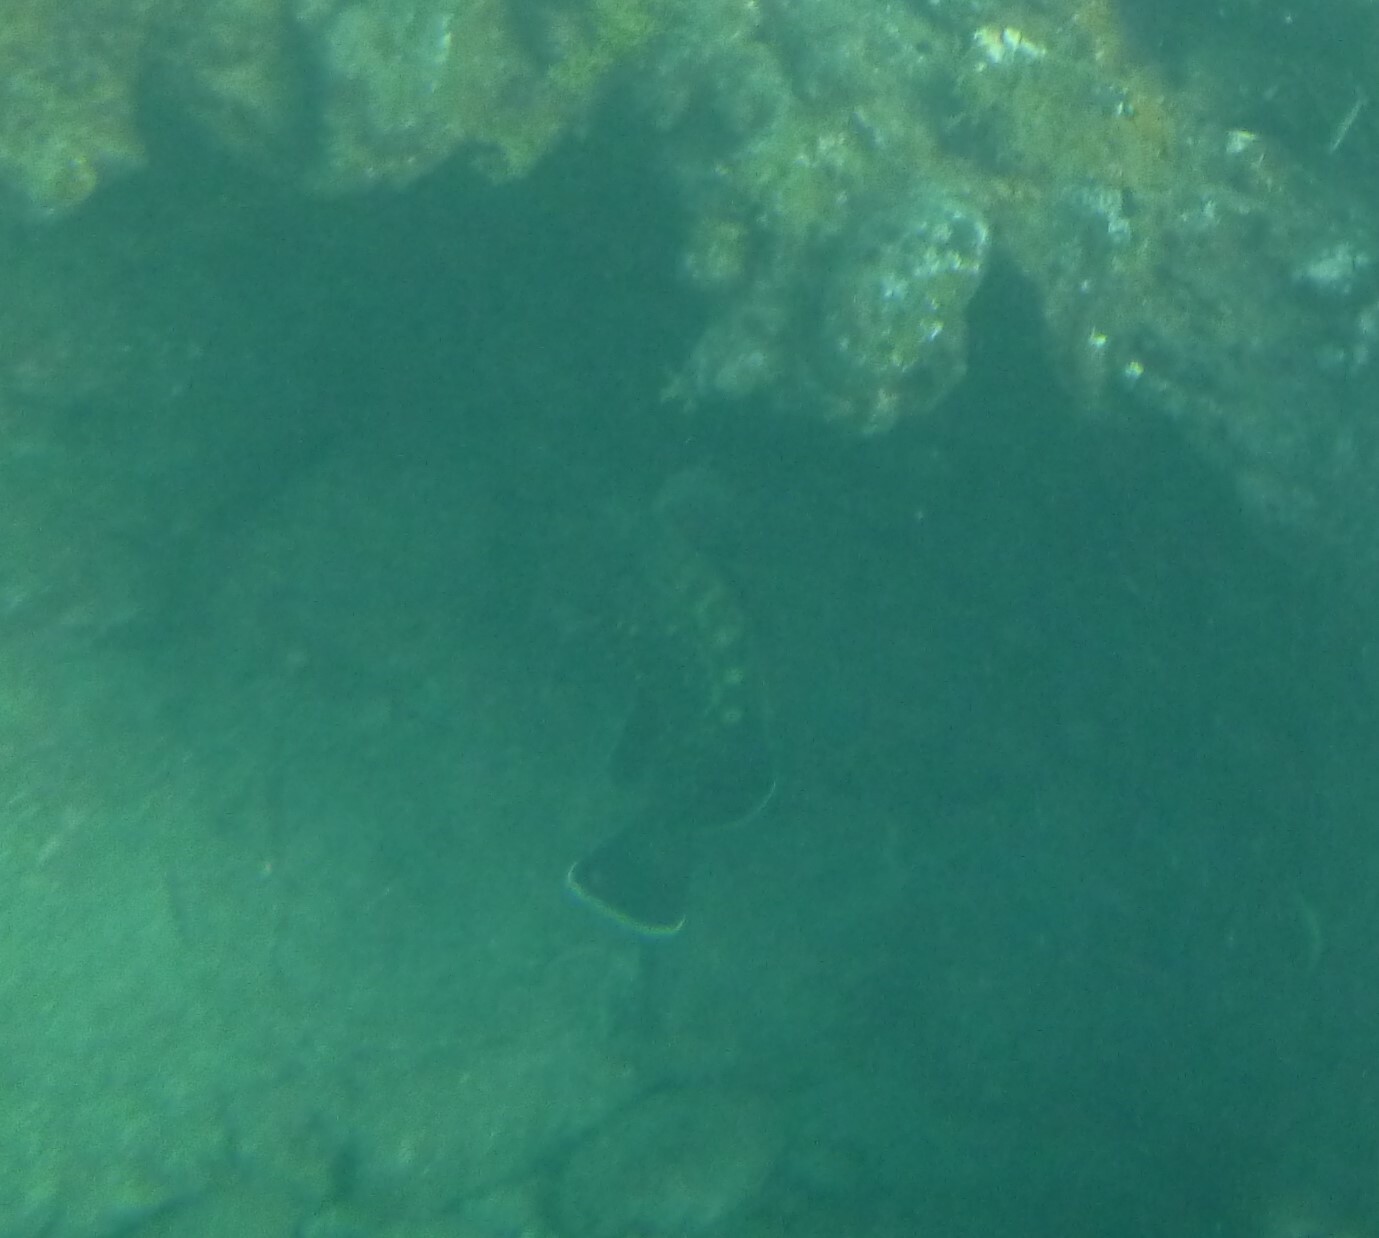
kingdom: Animalia
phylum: Chordata
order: Perciformes
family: Serranidae
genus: Epinephelus
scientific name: Epinephelus marginatus
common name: Dusky grouper
